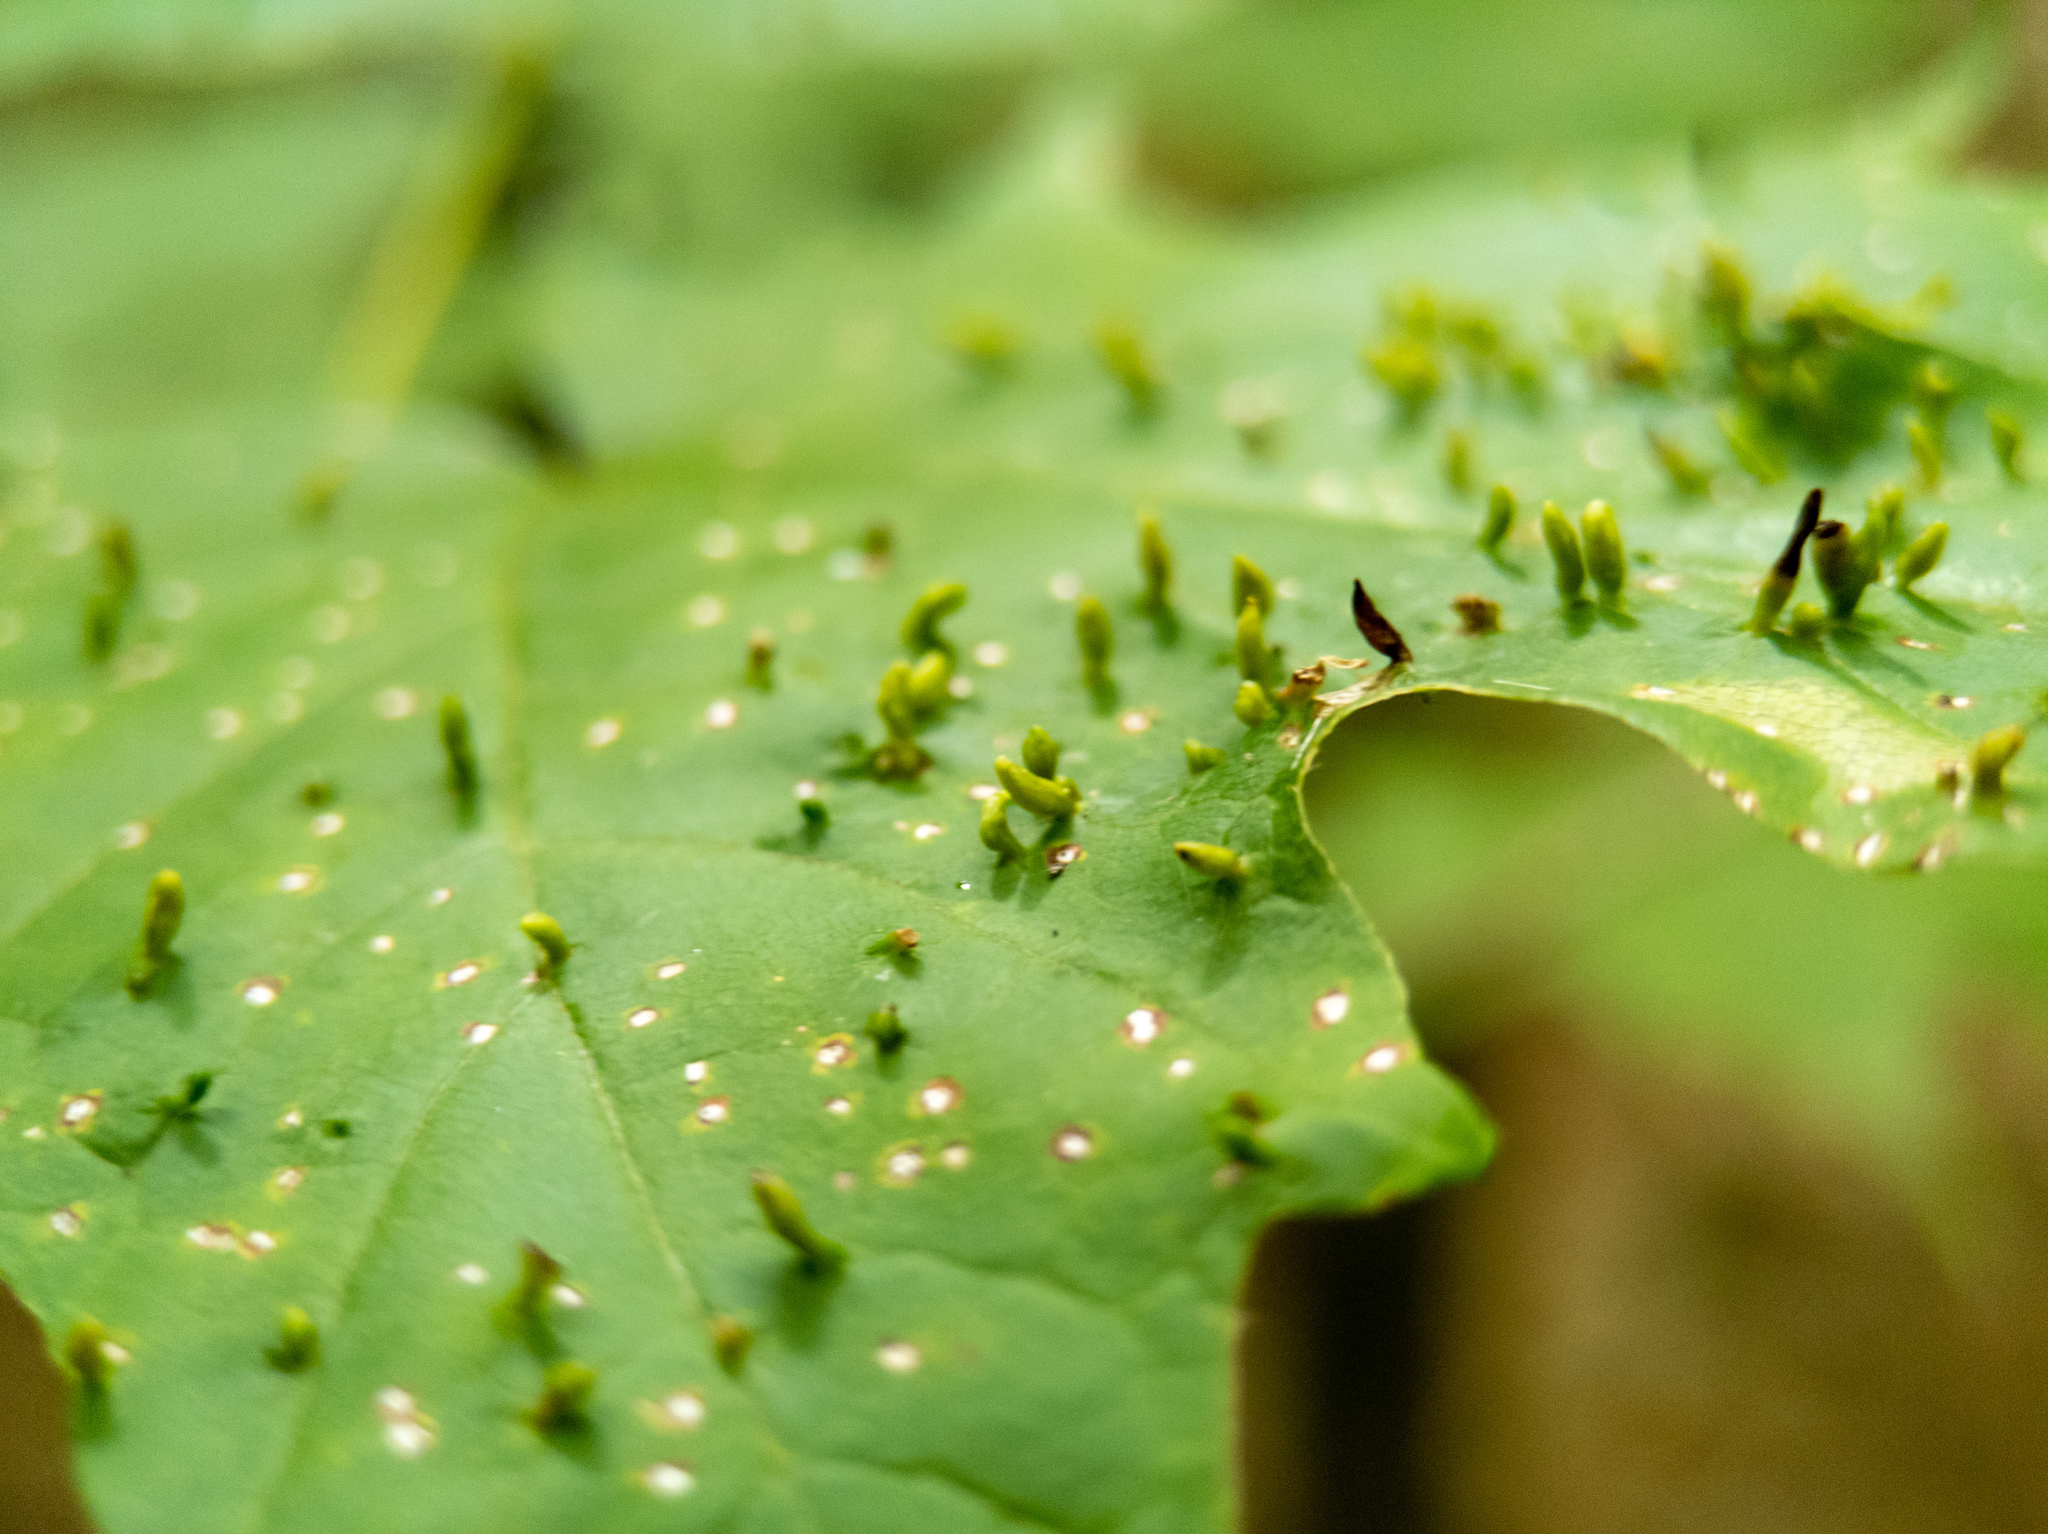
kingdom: Animalia
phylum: Arthropoda
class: Arachnida
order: Trombidiformes
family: Eriophyidae
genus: Vasates
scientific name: Vasates aceriscrumena
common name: Maple spindle gall mite
